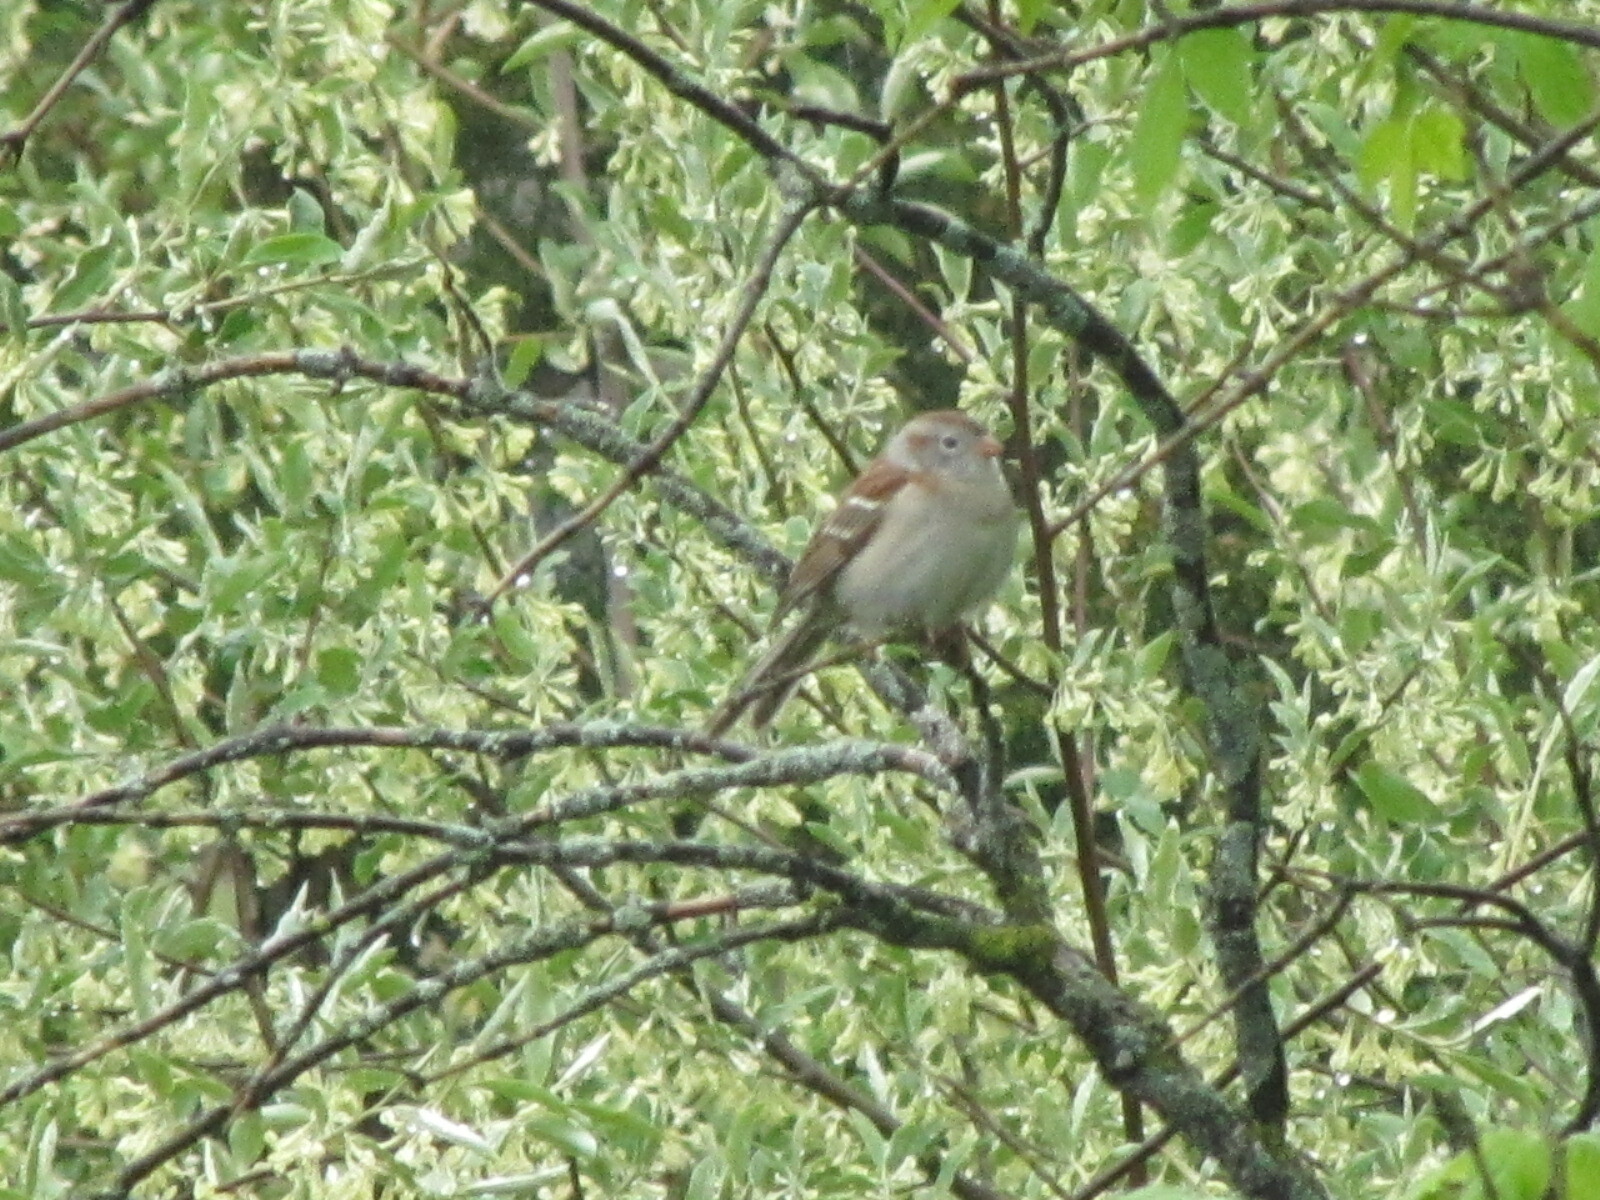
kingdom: Animalia
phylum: Chordata
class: Aves
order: Passeriformes
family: Passerellidae
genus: Spizella
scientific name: Spizella pusilla
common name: Field sparrow
